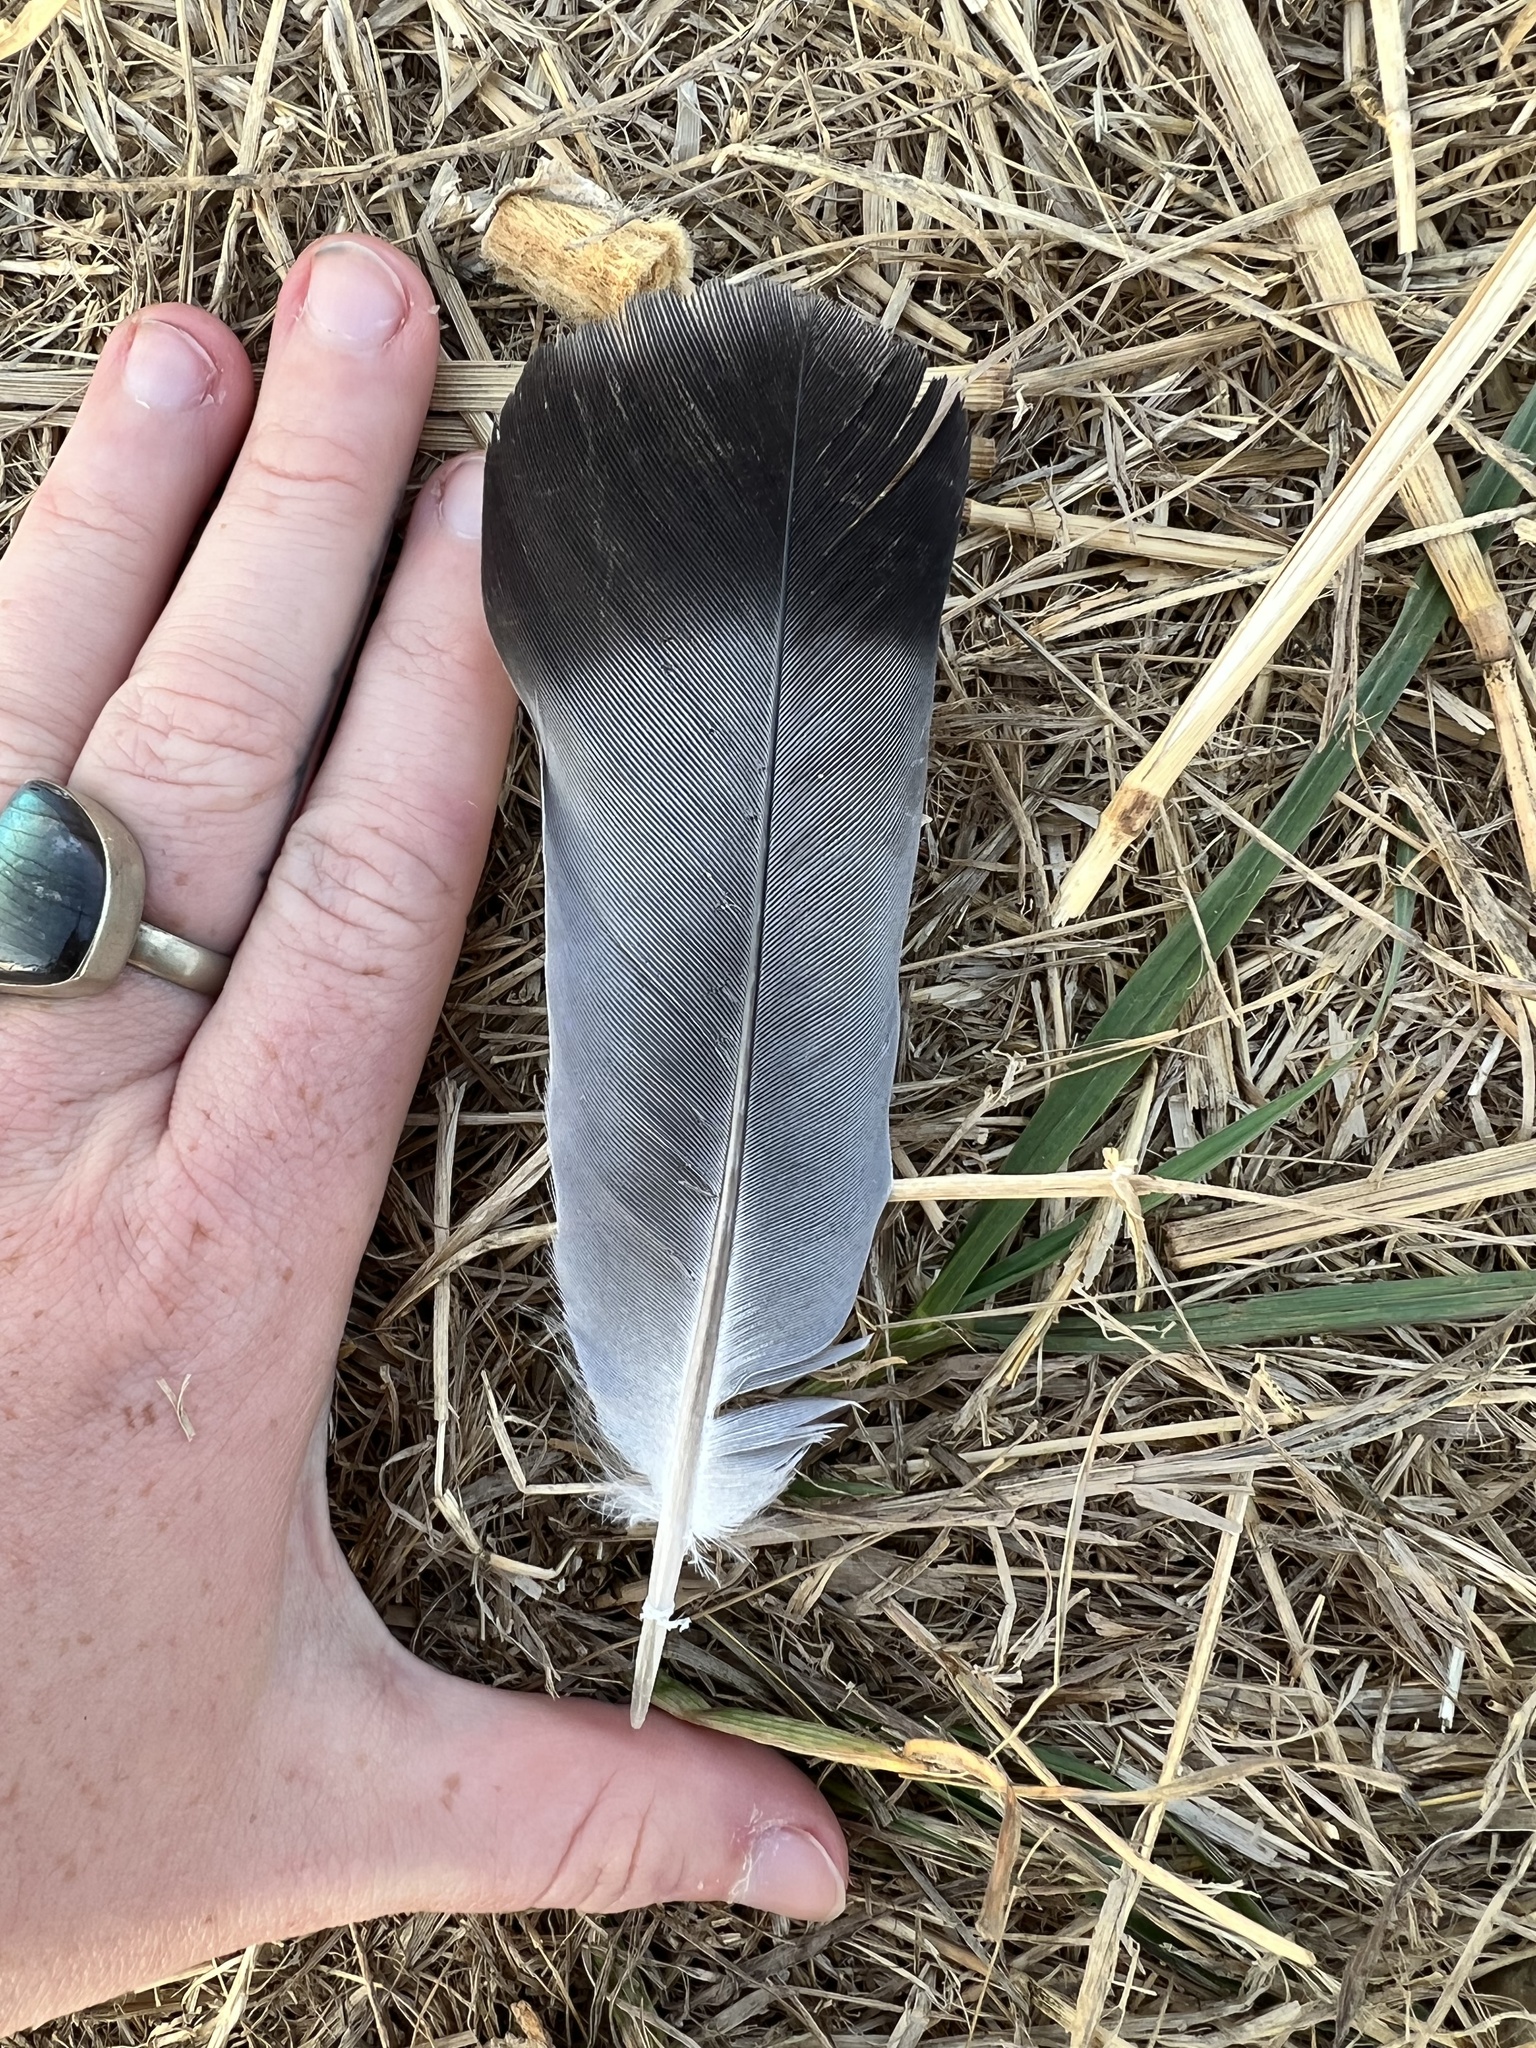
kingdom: Animalia
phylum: Chordata
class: Aves
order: Columbiformes
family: Columbidae
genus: Columba
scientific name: Columba livia
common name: Rock pigeon
